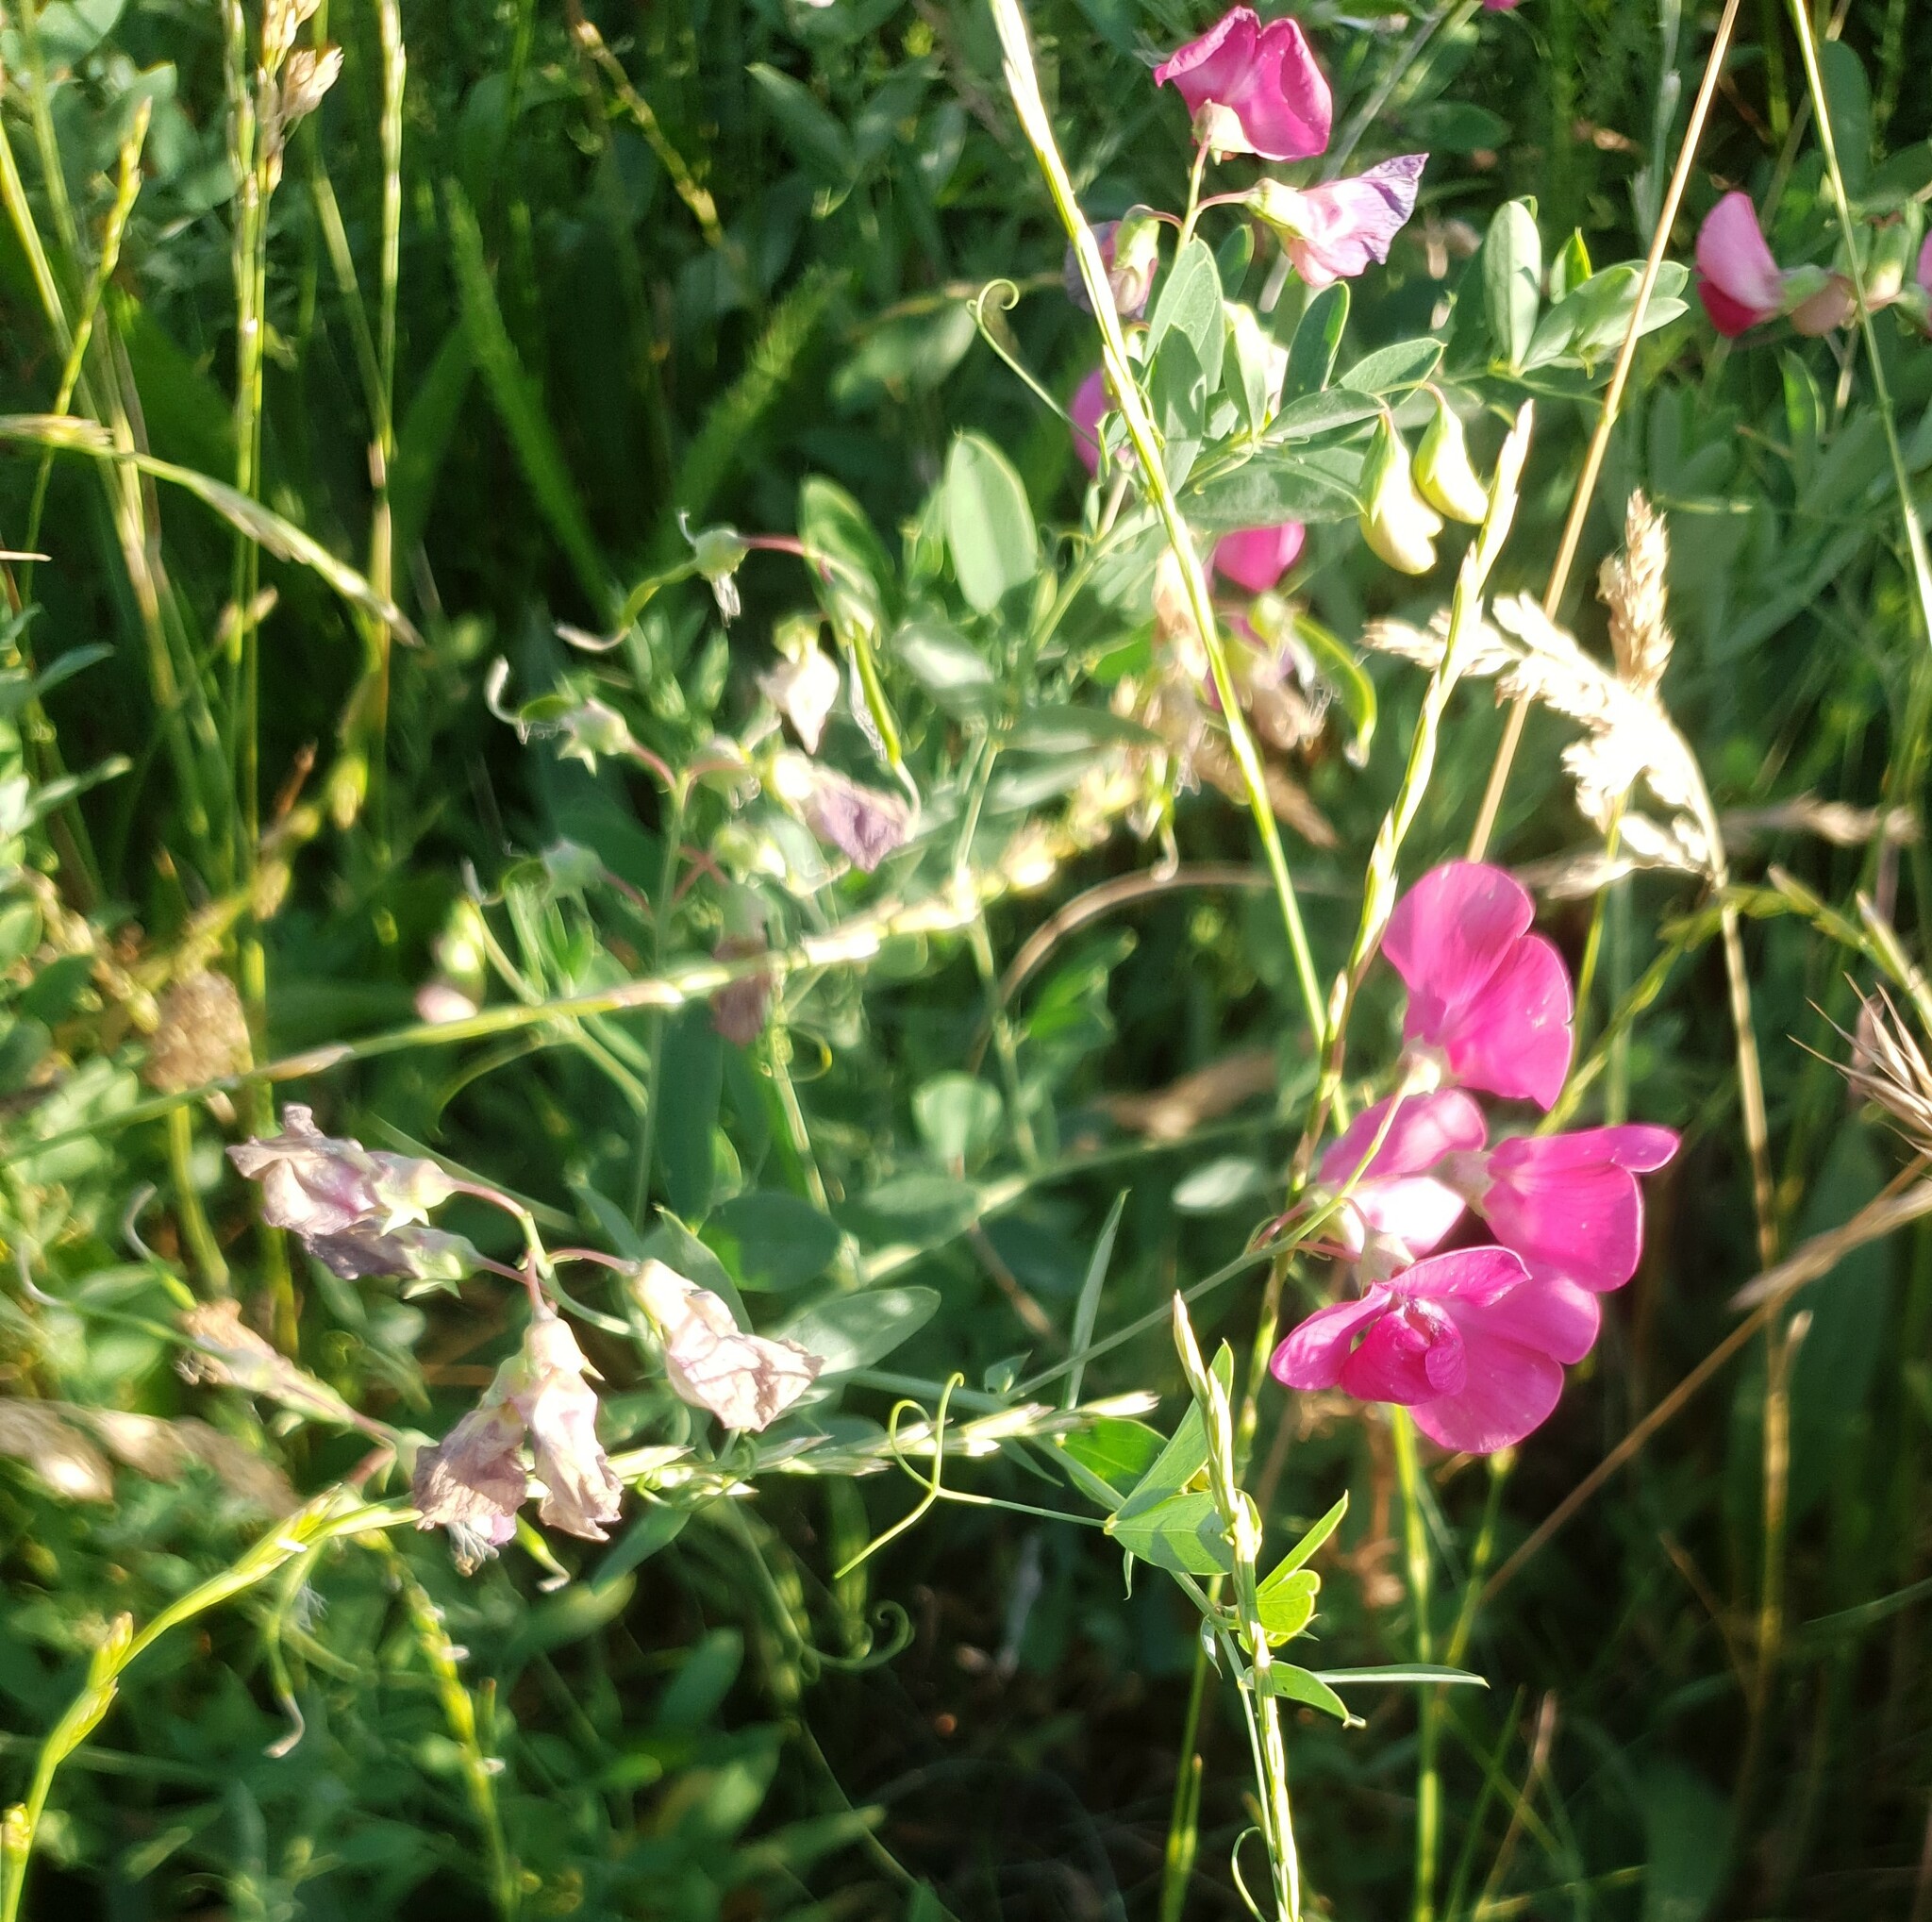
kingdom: Plantae
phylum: Tracheophyta
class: Magnoliopsida
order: Fabales
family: Fabaceae
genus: Lathyrus
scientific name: Lathyrus tuberosus
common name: Tuberous pea
